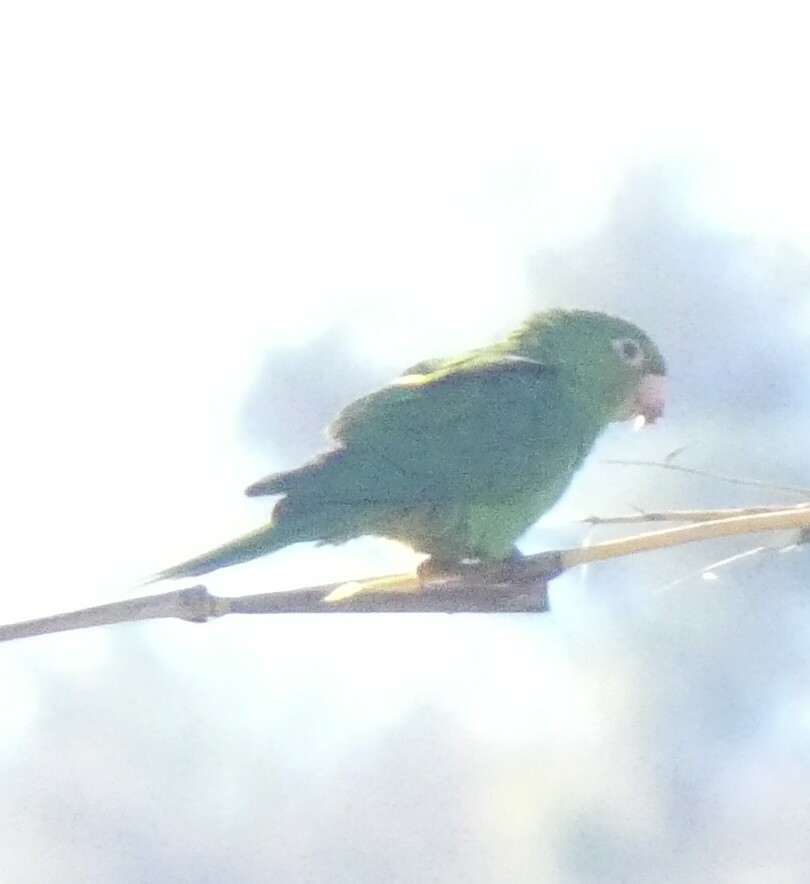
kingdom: Animalia
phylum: Chordata
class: Aves
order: Psittaciformes
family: Psittacidae
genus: Aratinga
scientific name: Aratinga leucophthalma
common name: White-eyed parakeet
